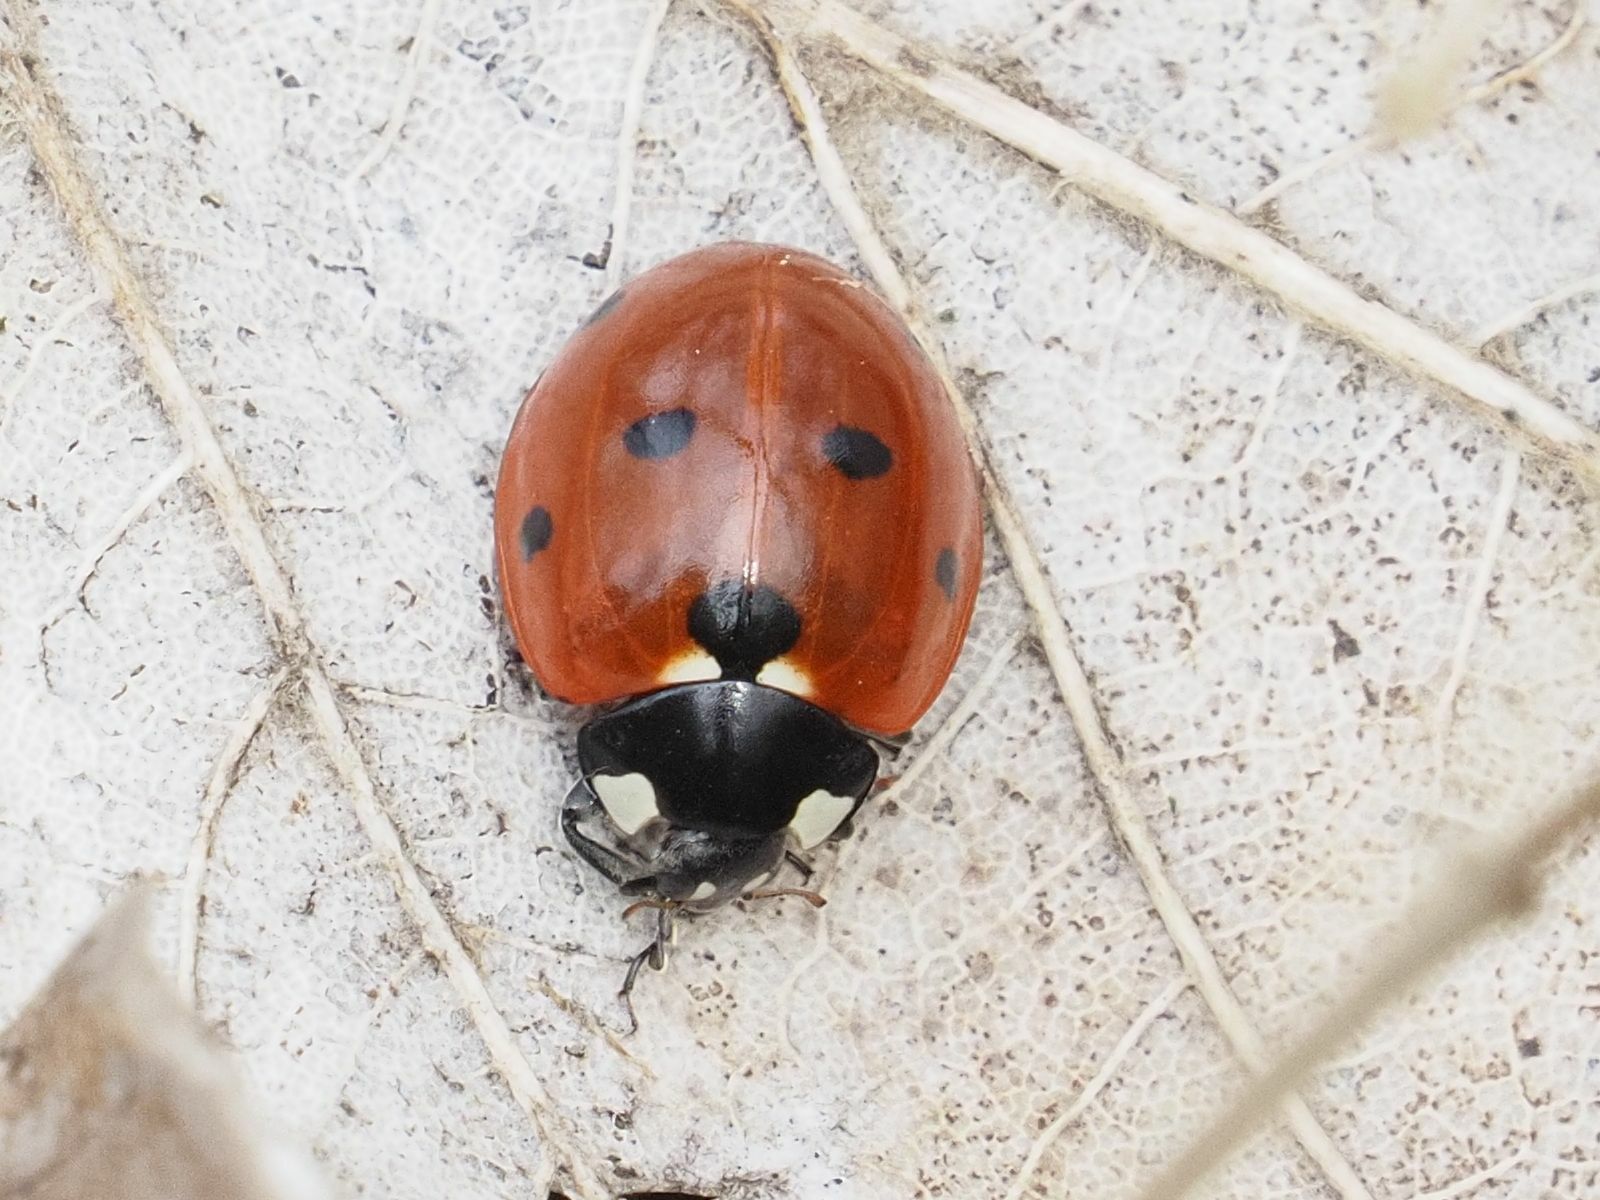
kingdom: Animalia
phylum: Arthropoda
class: Insecta
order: Coleoptera
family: Coccinellidae
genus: Coccinella
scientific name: Coccinella septempunctata
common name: Sevenspotted lady beetle
